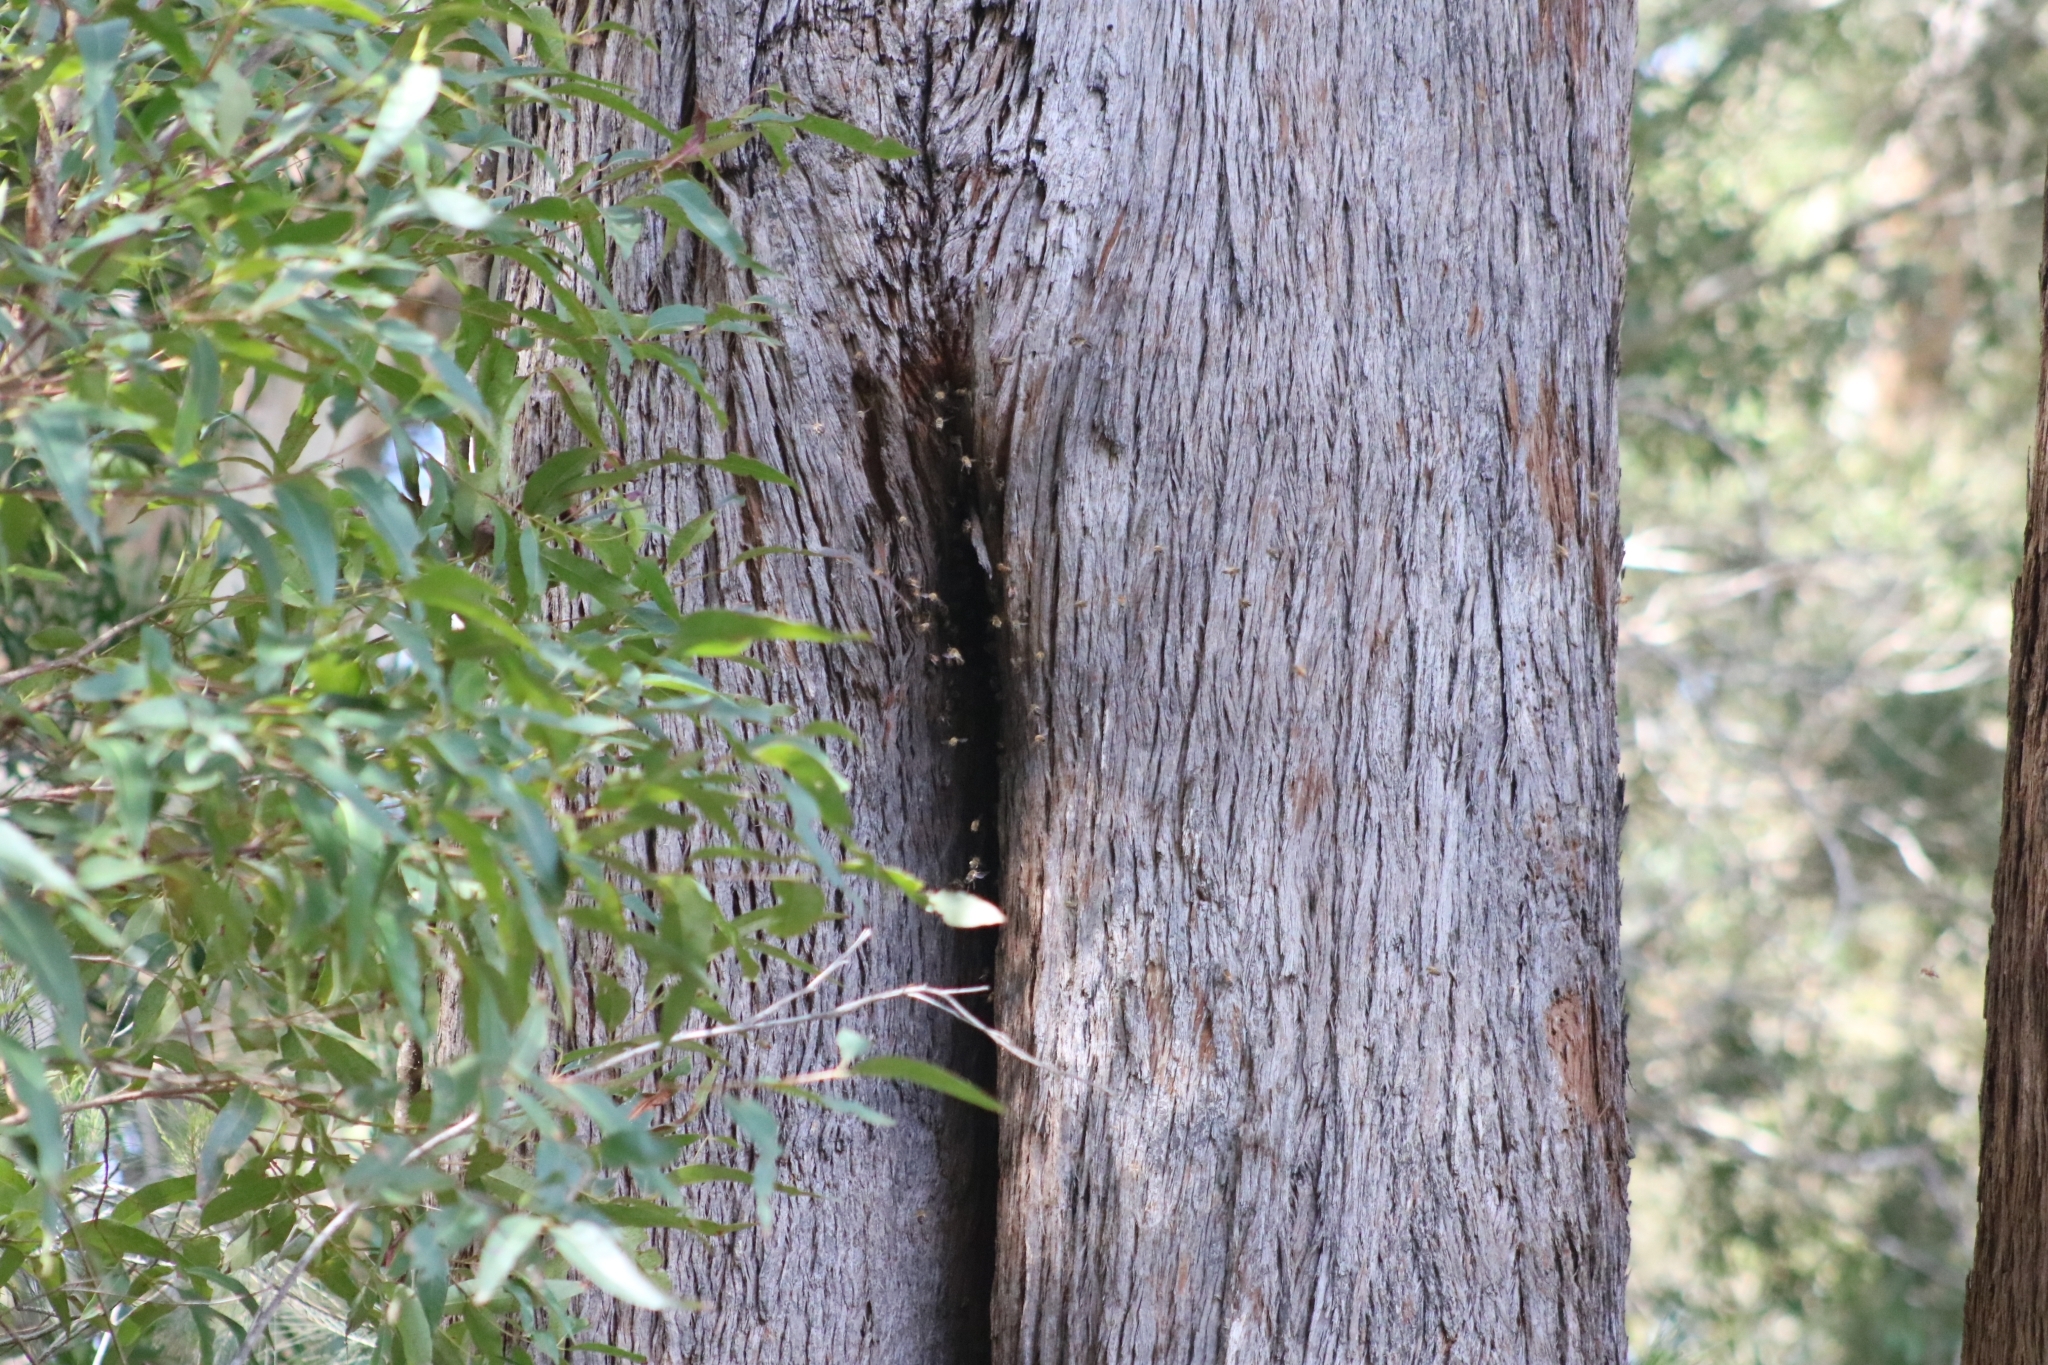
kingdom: Animalia
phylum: Arthropoda
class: Insecta
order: Hymenoptera
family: Apidae
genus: Apis
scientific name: Apis mellifera
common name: Honey bee
